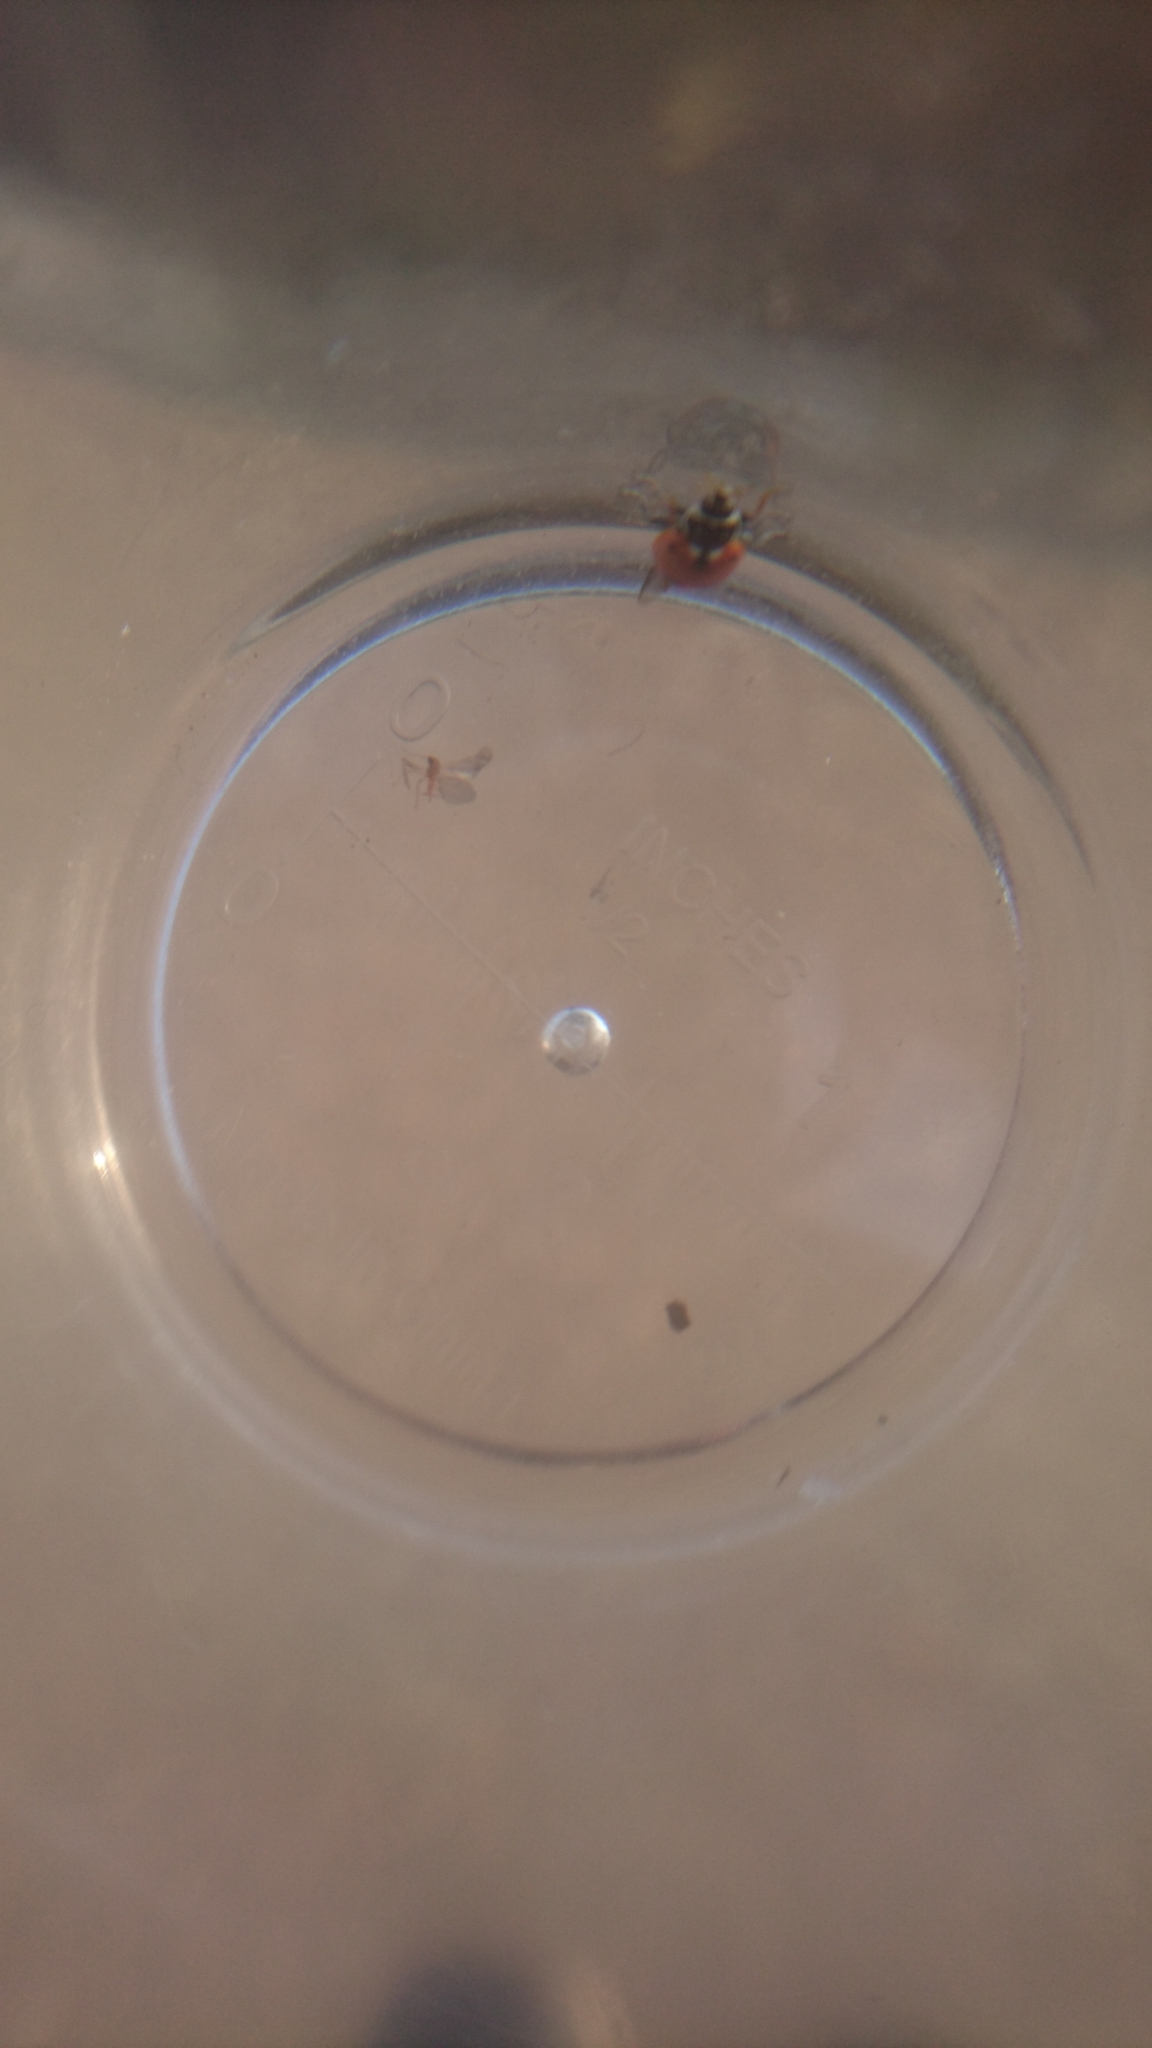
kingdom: Animalia
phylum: Arthropoda
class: Insecta
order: Coleoptera
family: Coccinellidae
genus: Hippodamia
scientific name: Hippodamia variegata
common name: Ladybird beetle
